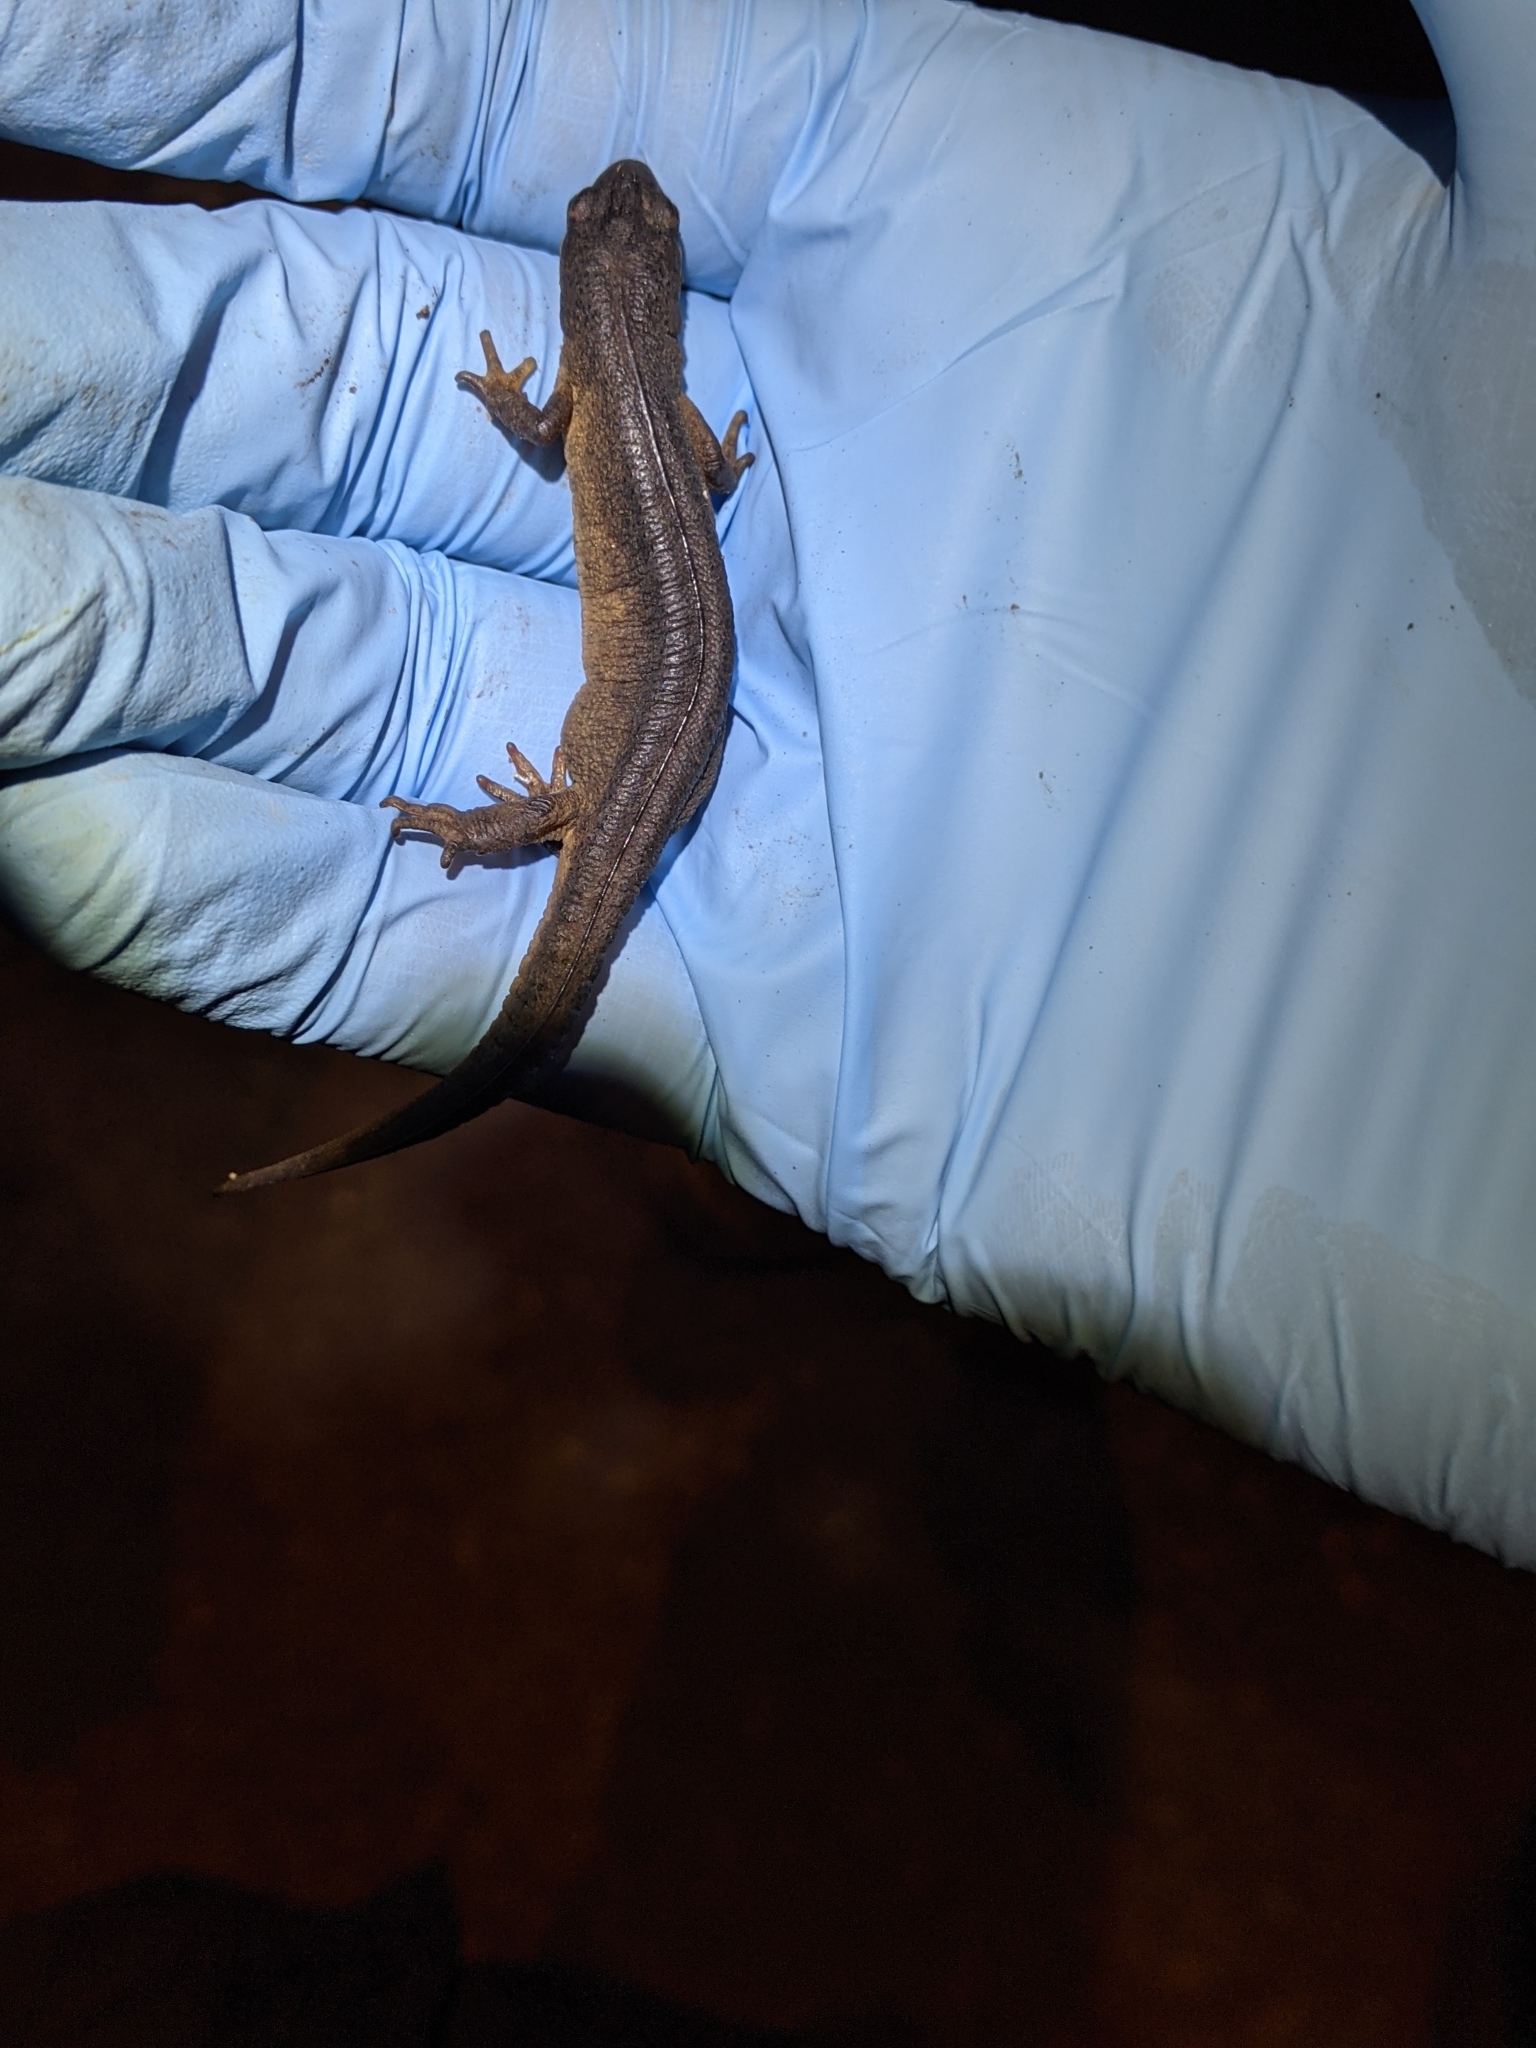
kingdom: Animalia
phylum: Chordata
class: Amphibia
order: Caudata
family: Salamandridae
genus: Lissotriton
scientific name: Lissotriton vulgaris
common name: Smooth newt
